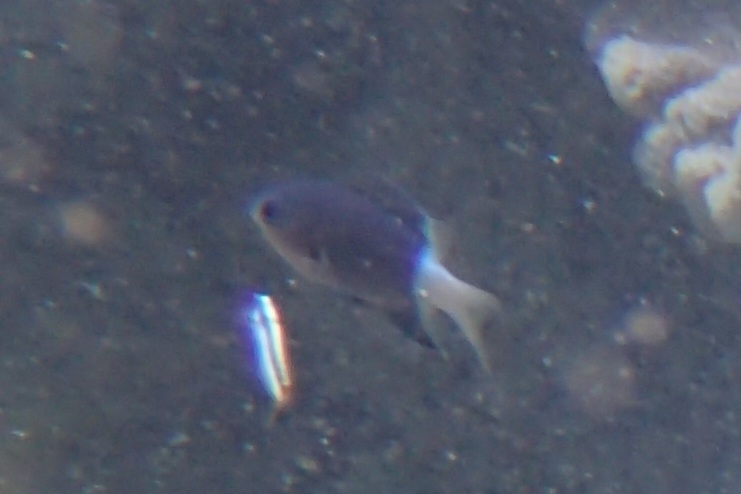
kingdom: Animalia
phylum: Chordata
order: Perciformes
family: Pomacentridae
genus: Pycnochromis
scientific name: Pycnochromis margaritifer
